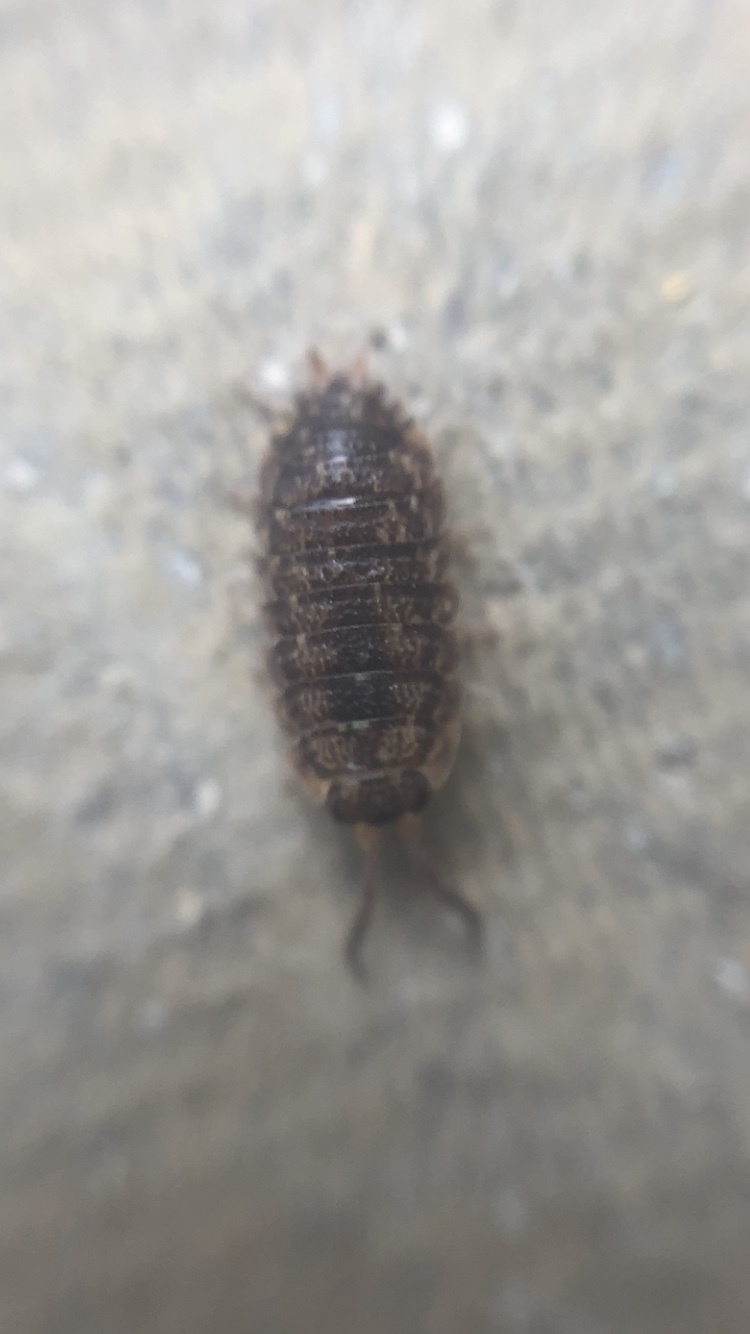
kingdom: Animalia
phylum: Arthropoda
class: Malacostraca
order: Isopoda
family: Porcellionidae
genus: Porcellio
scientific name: Porcellio scaber
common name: Common rough woodlouse
